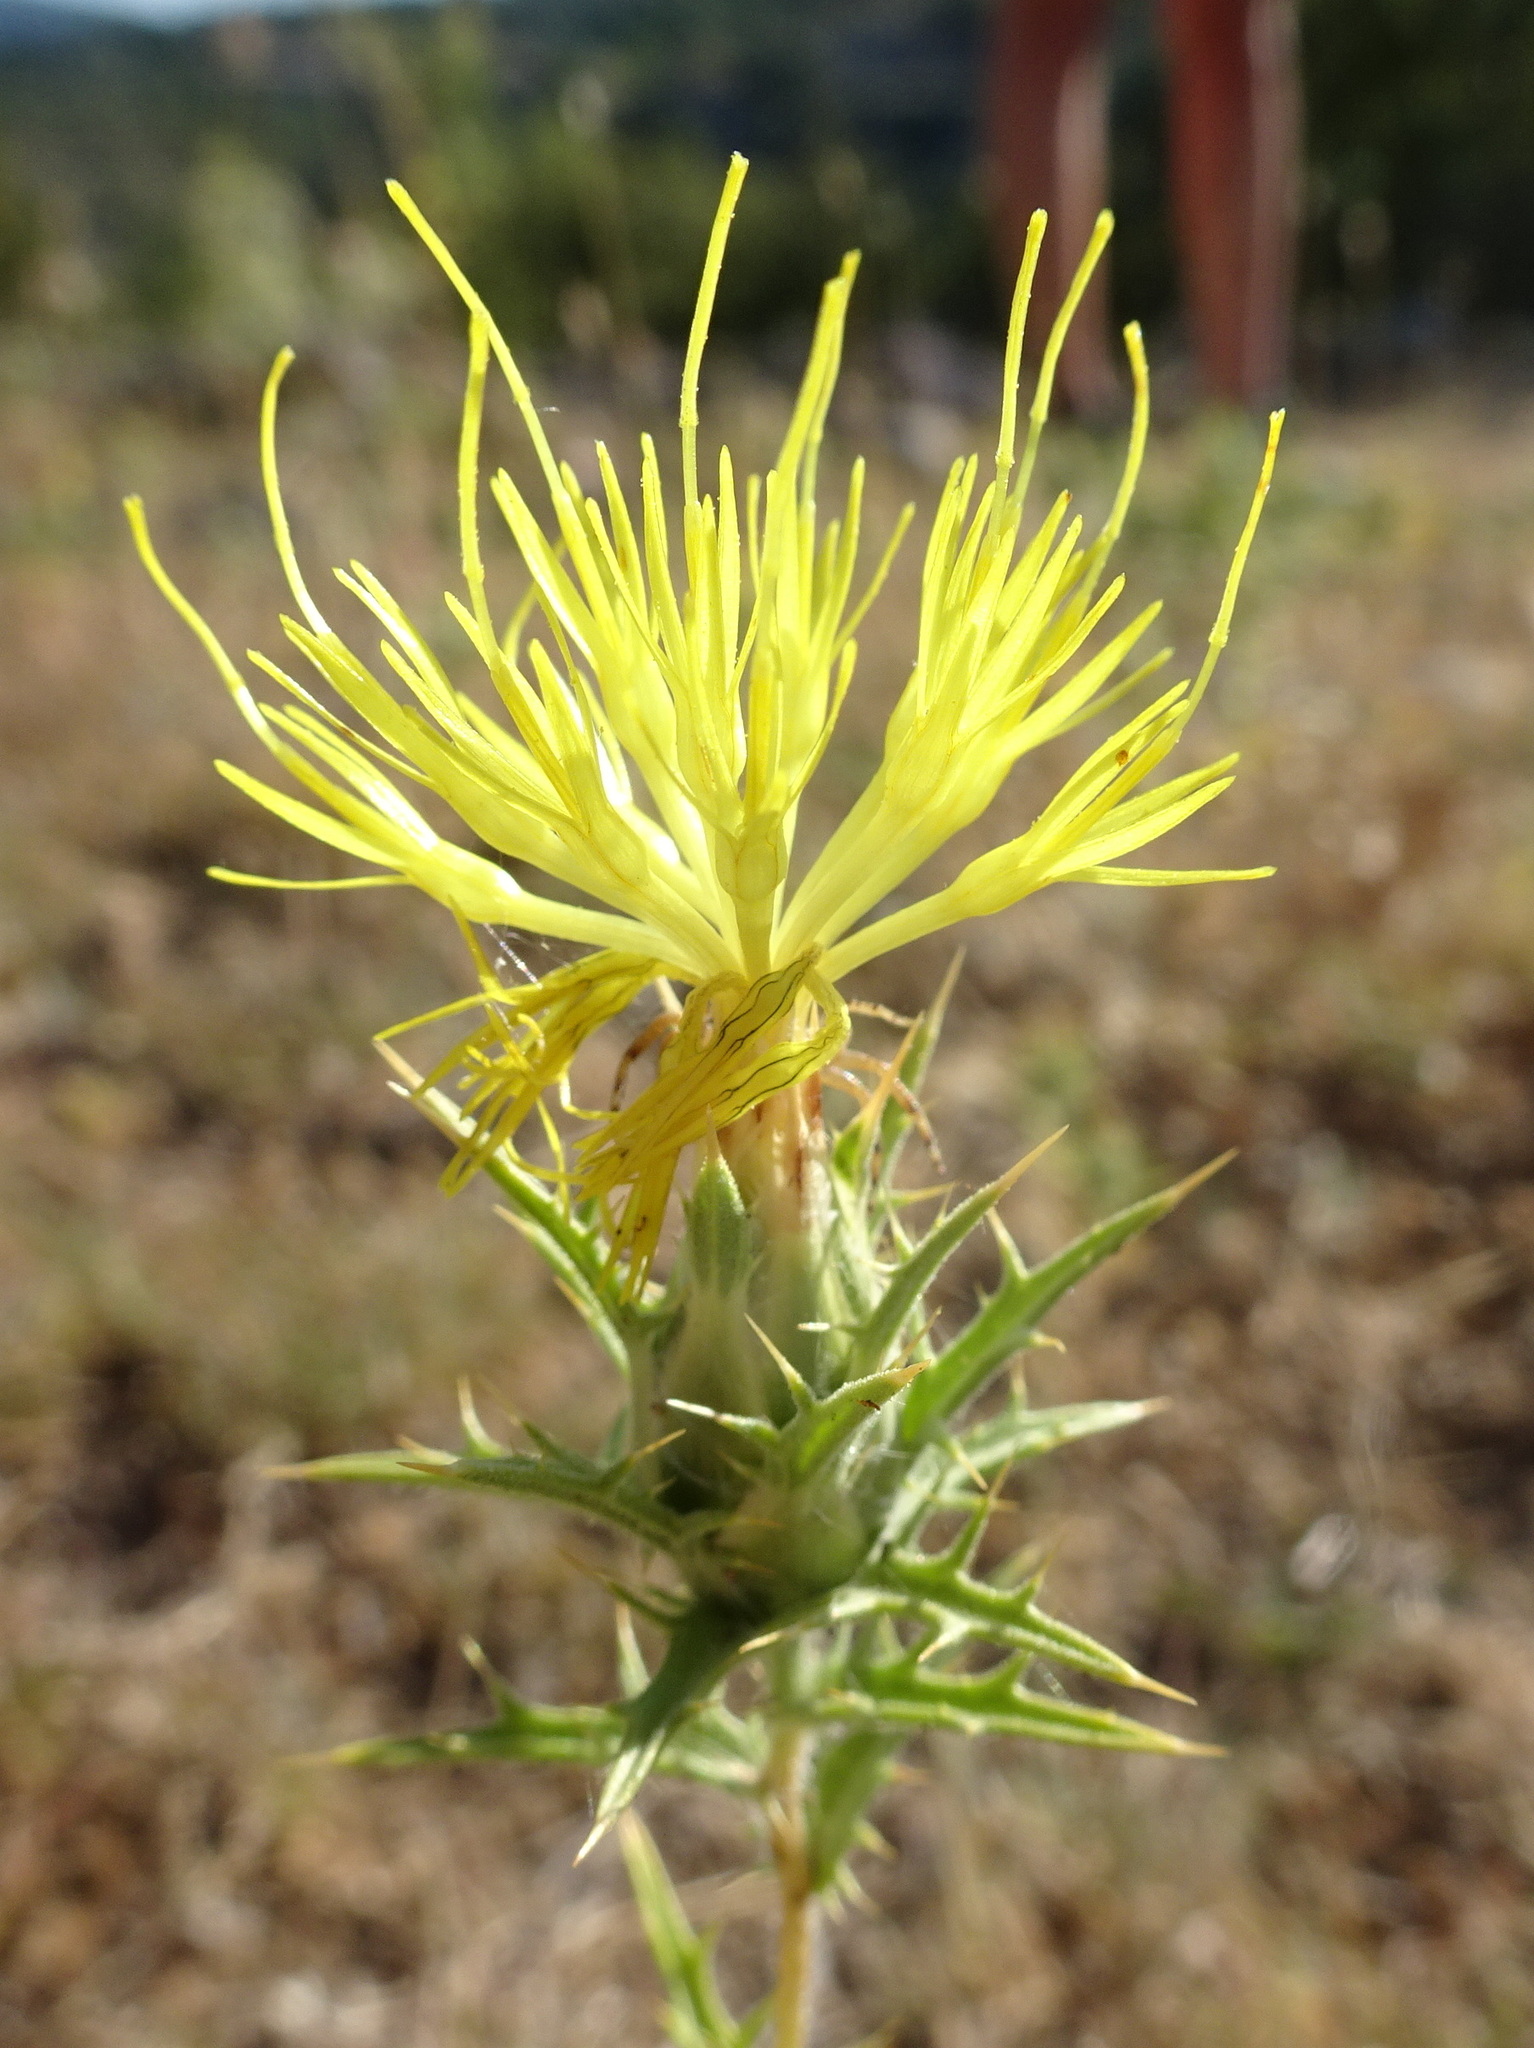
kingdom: Plantae
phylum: Tracheophyta
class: Magnoliopsida
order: Asterales
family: Asteraceae
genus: Carthamus
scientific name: Carthamus lanatus
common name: Downy safflower
